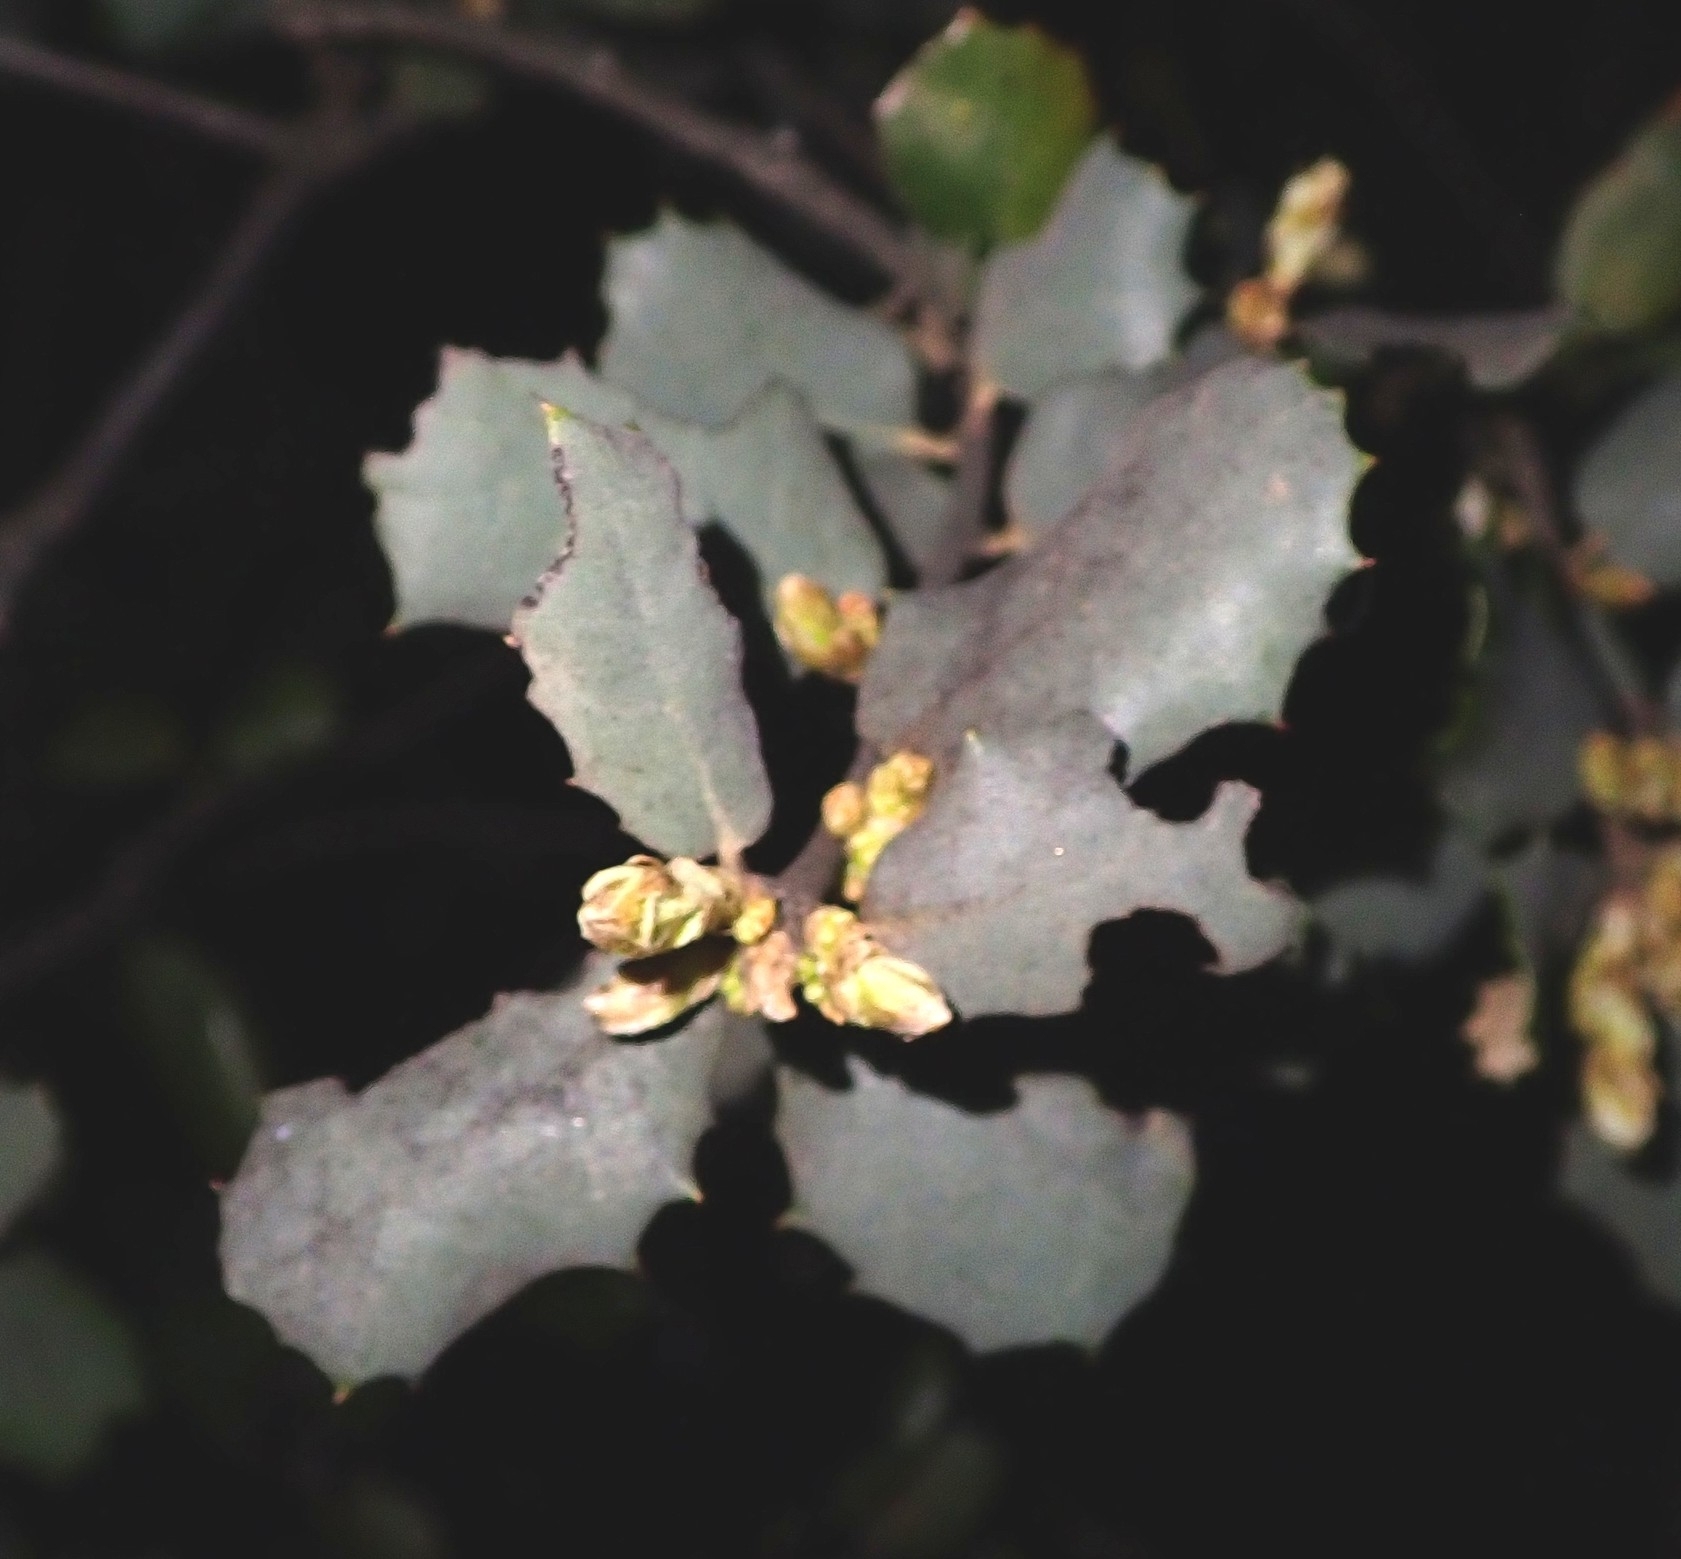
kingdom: Plantae
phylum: Tracheophyta
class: Magnoliopsida
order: Fagales
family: Fagaceae
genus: Quercus
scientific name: Quercus rotundifolia
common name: Holm oak
